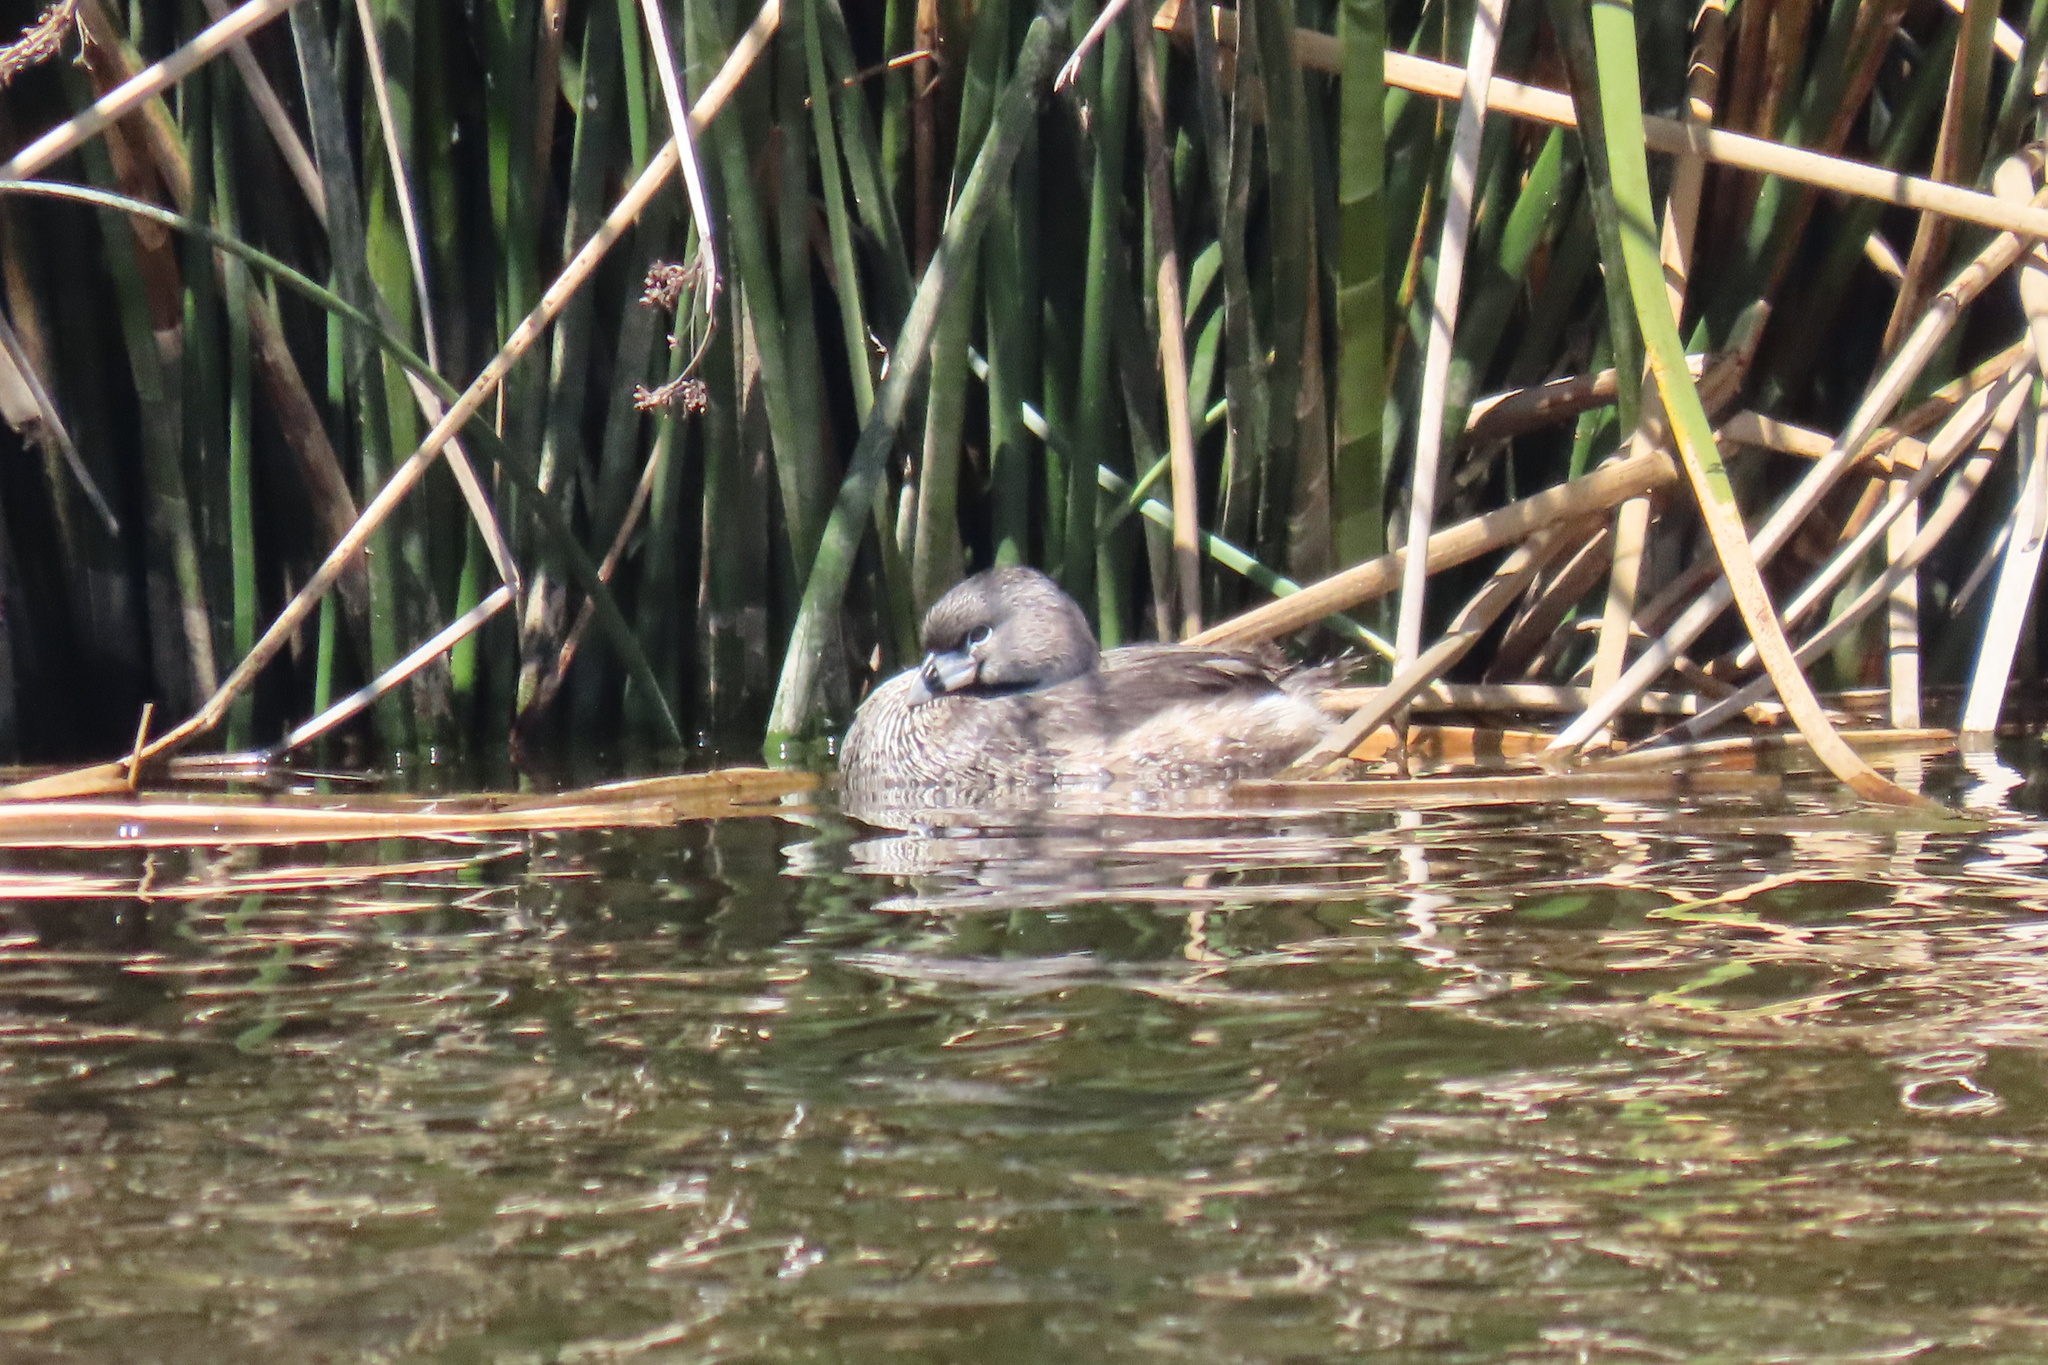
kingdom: Animalia
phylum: Chordata
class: Aves
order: Podicipediformes
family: Podicipedidae
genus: Podilymbus
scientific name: Podilymbus podiceps
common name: Pied-billed grebe
